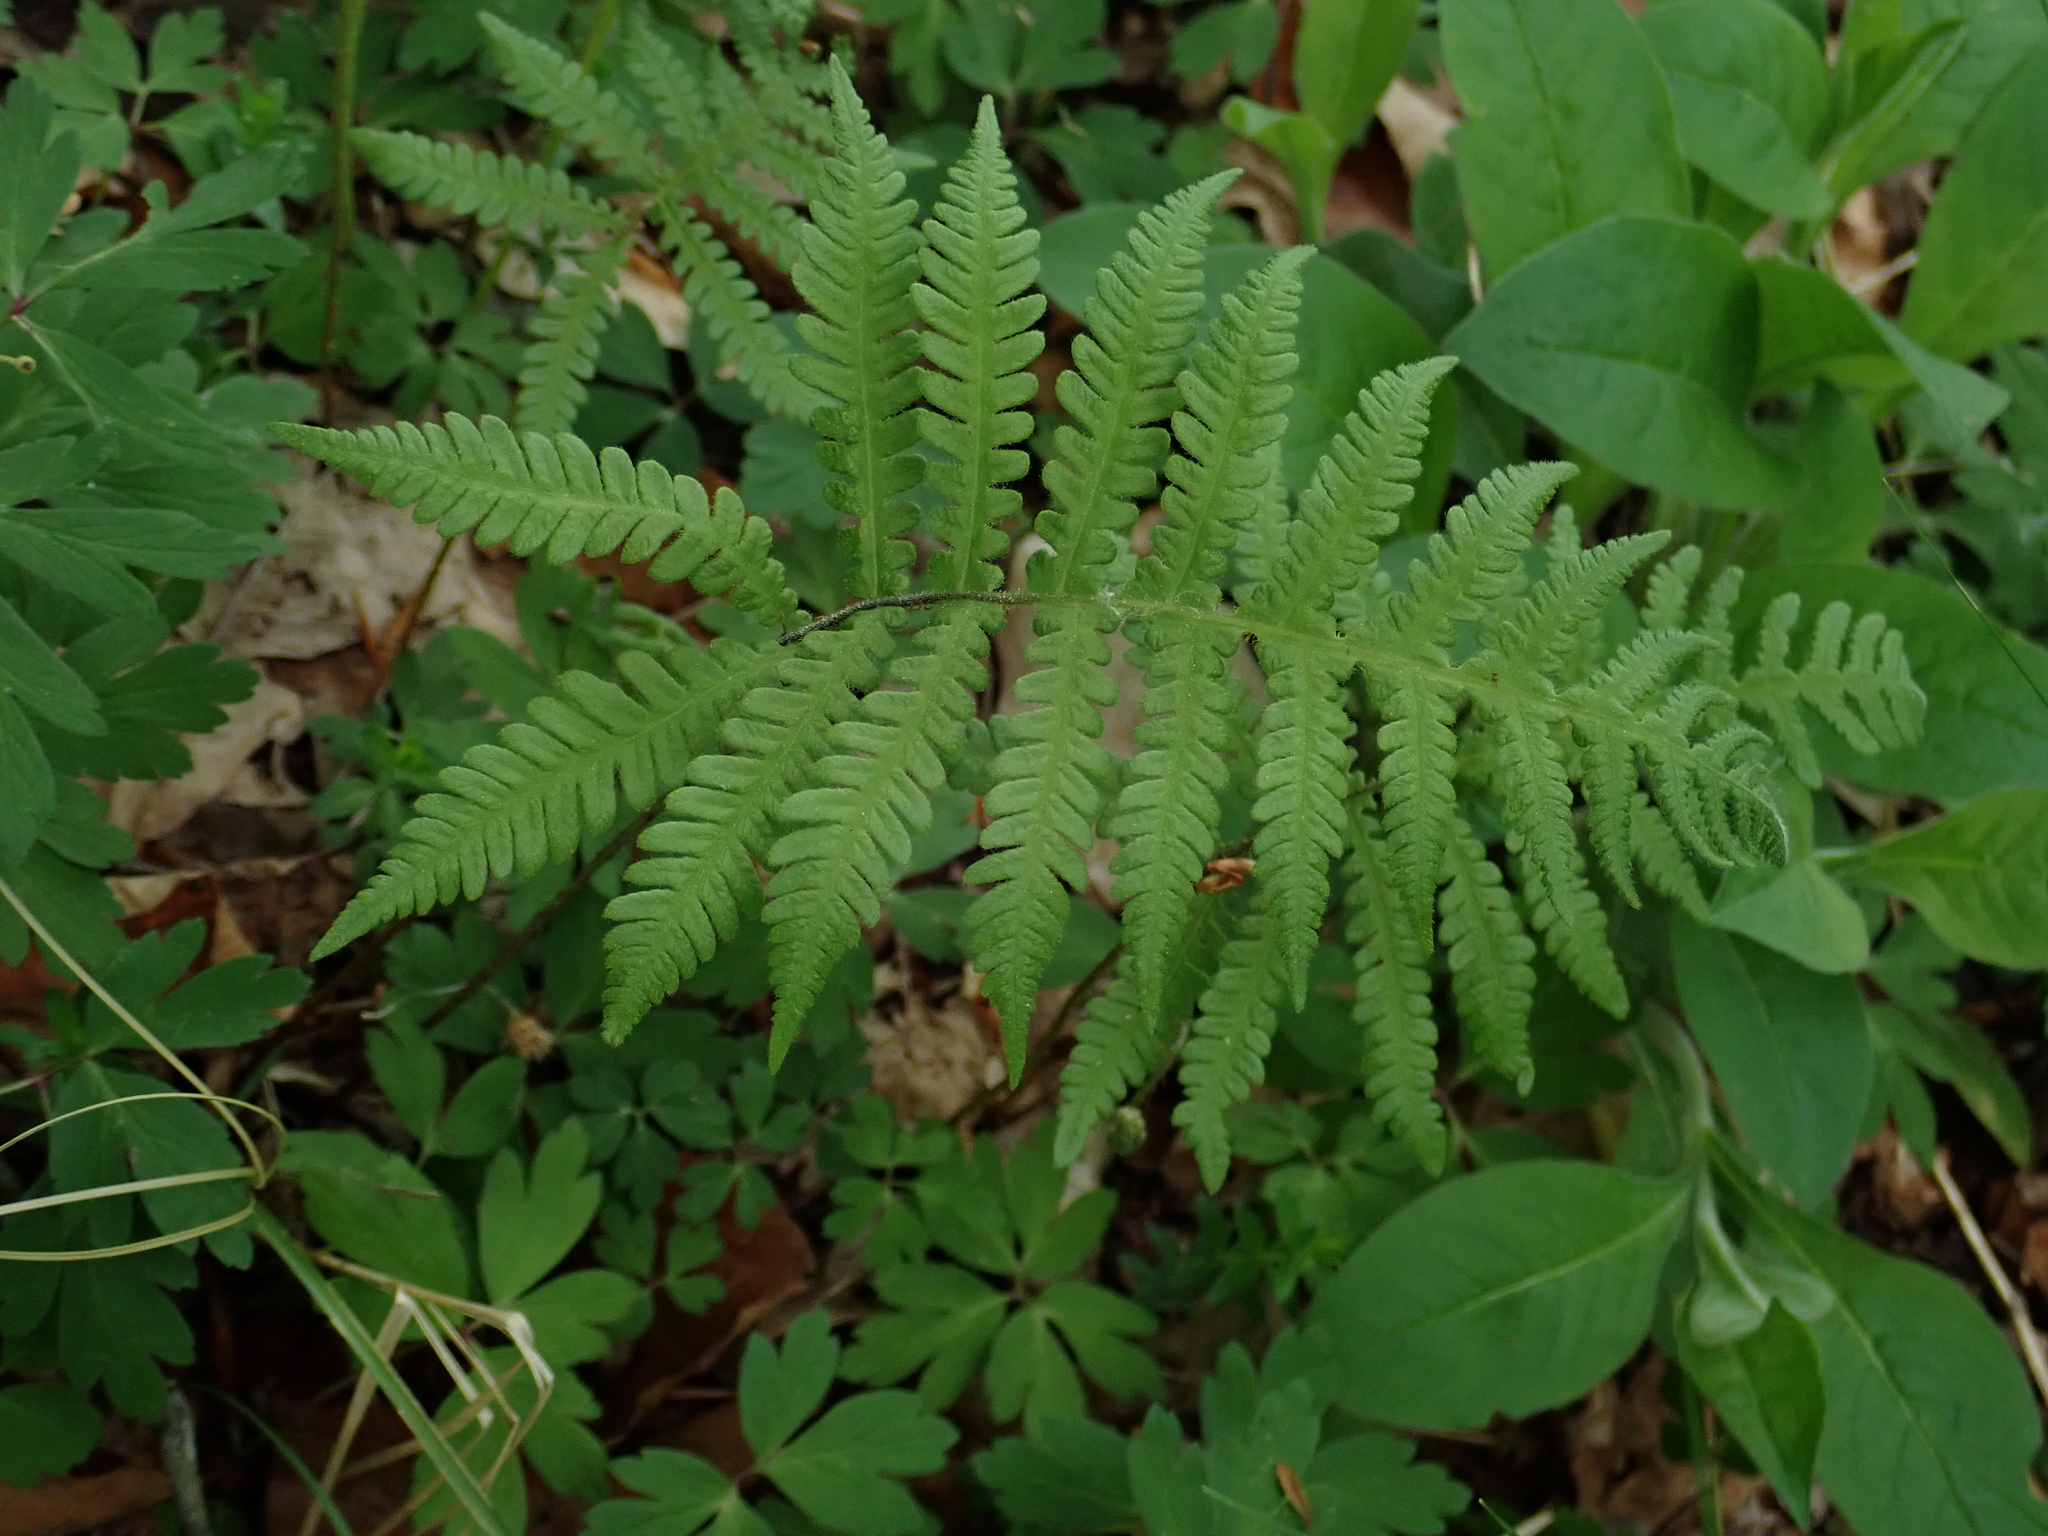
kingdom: Plantae
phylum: Tracheophyta
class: Polypodiopsida
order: Polypodiales
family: Thelypteridaceae
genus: Phegopteris
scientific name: Phegopteris connectilis
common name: Beech fern
